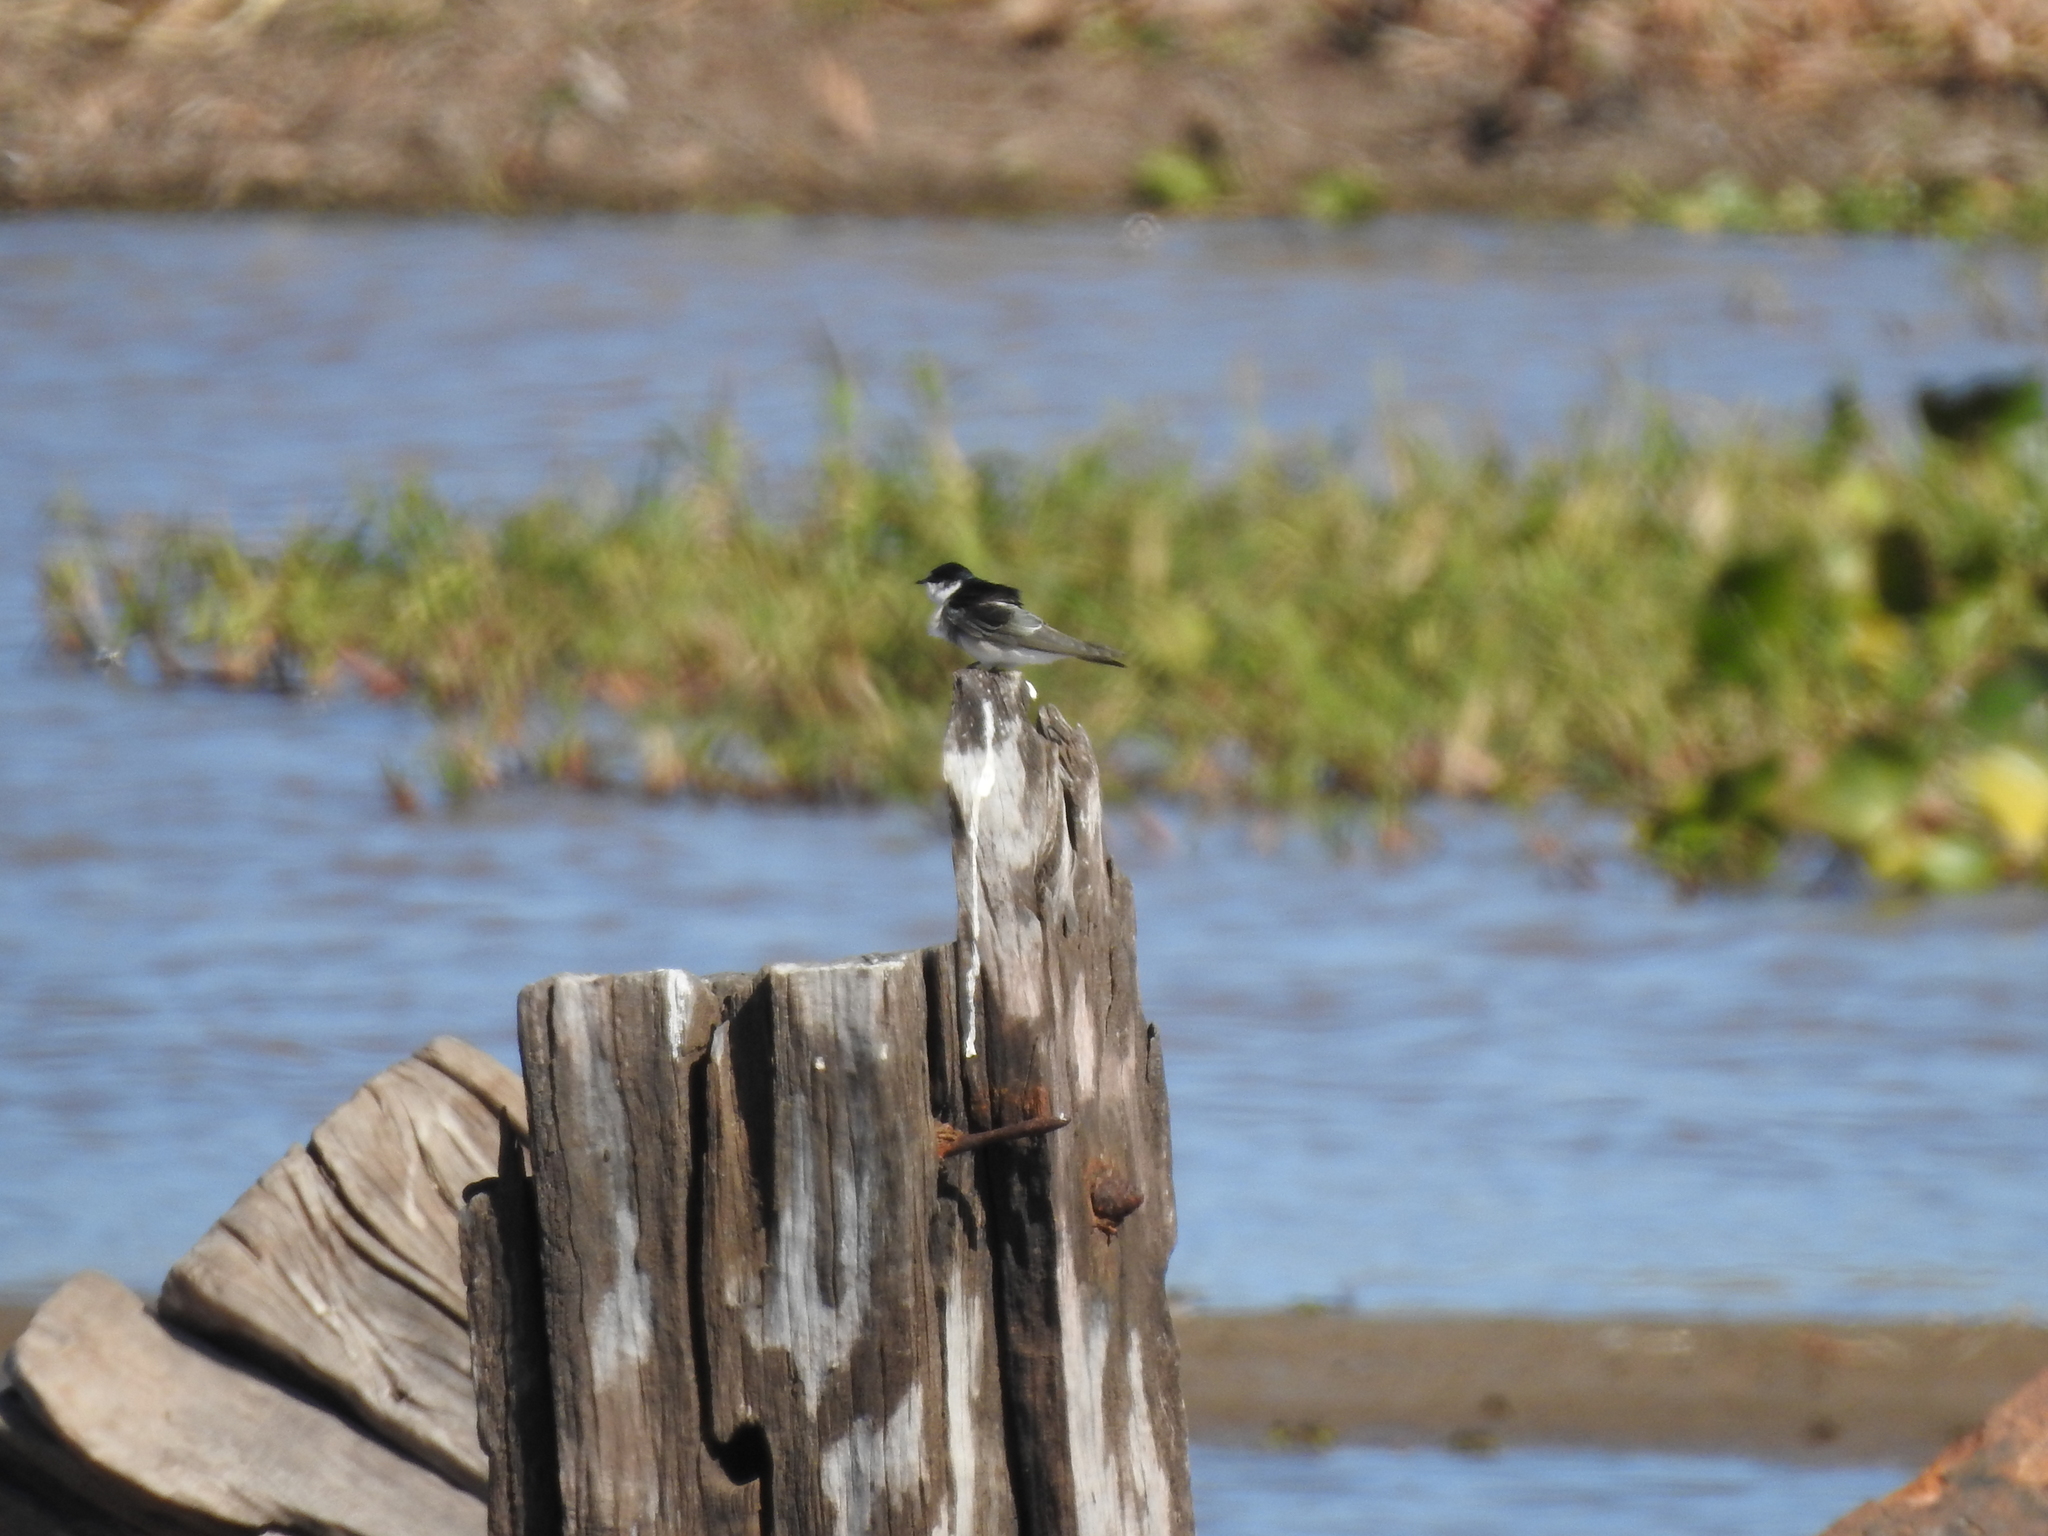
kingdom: Animalia
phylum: Chordata
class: Aves
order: Passeriformes
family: Hirundinidae
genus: Tachycineta
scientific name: Tachycineta leucorrhoa
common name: White-rumped swallow
